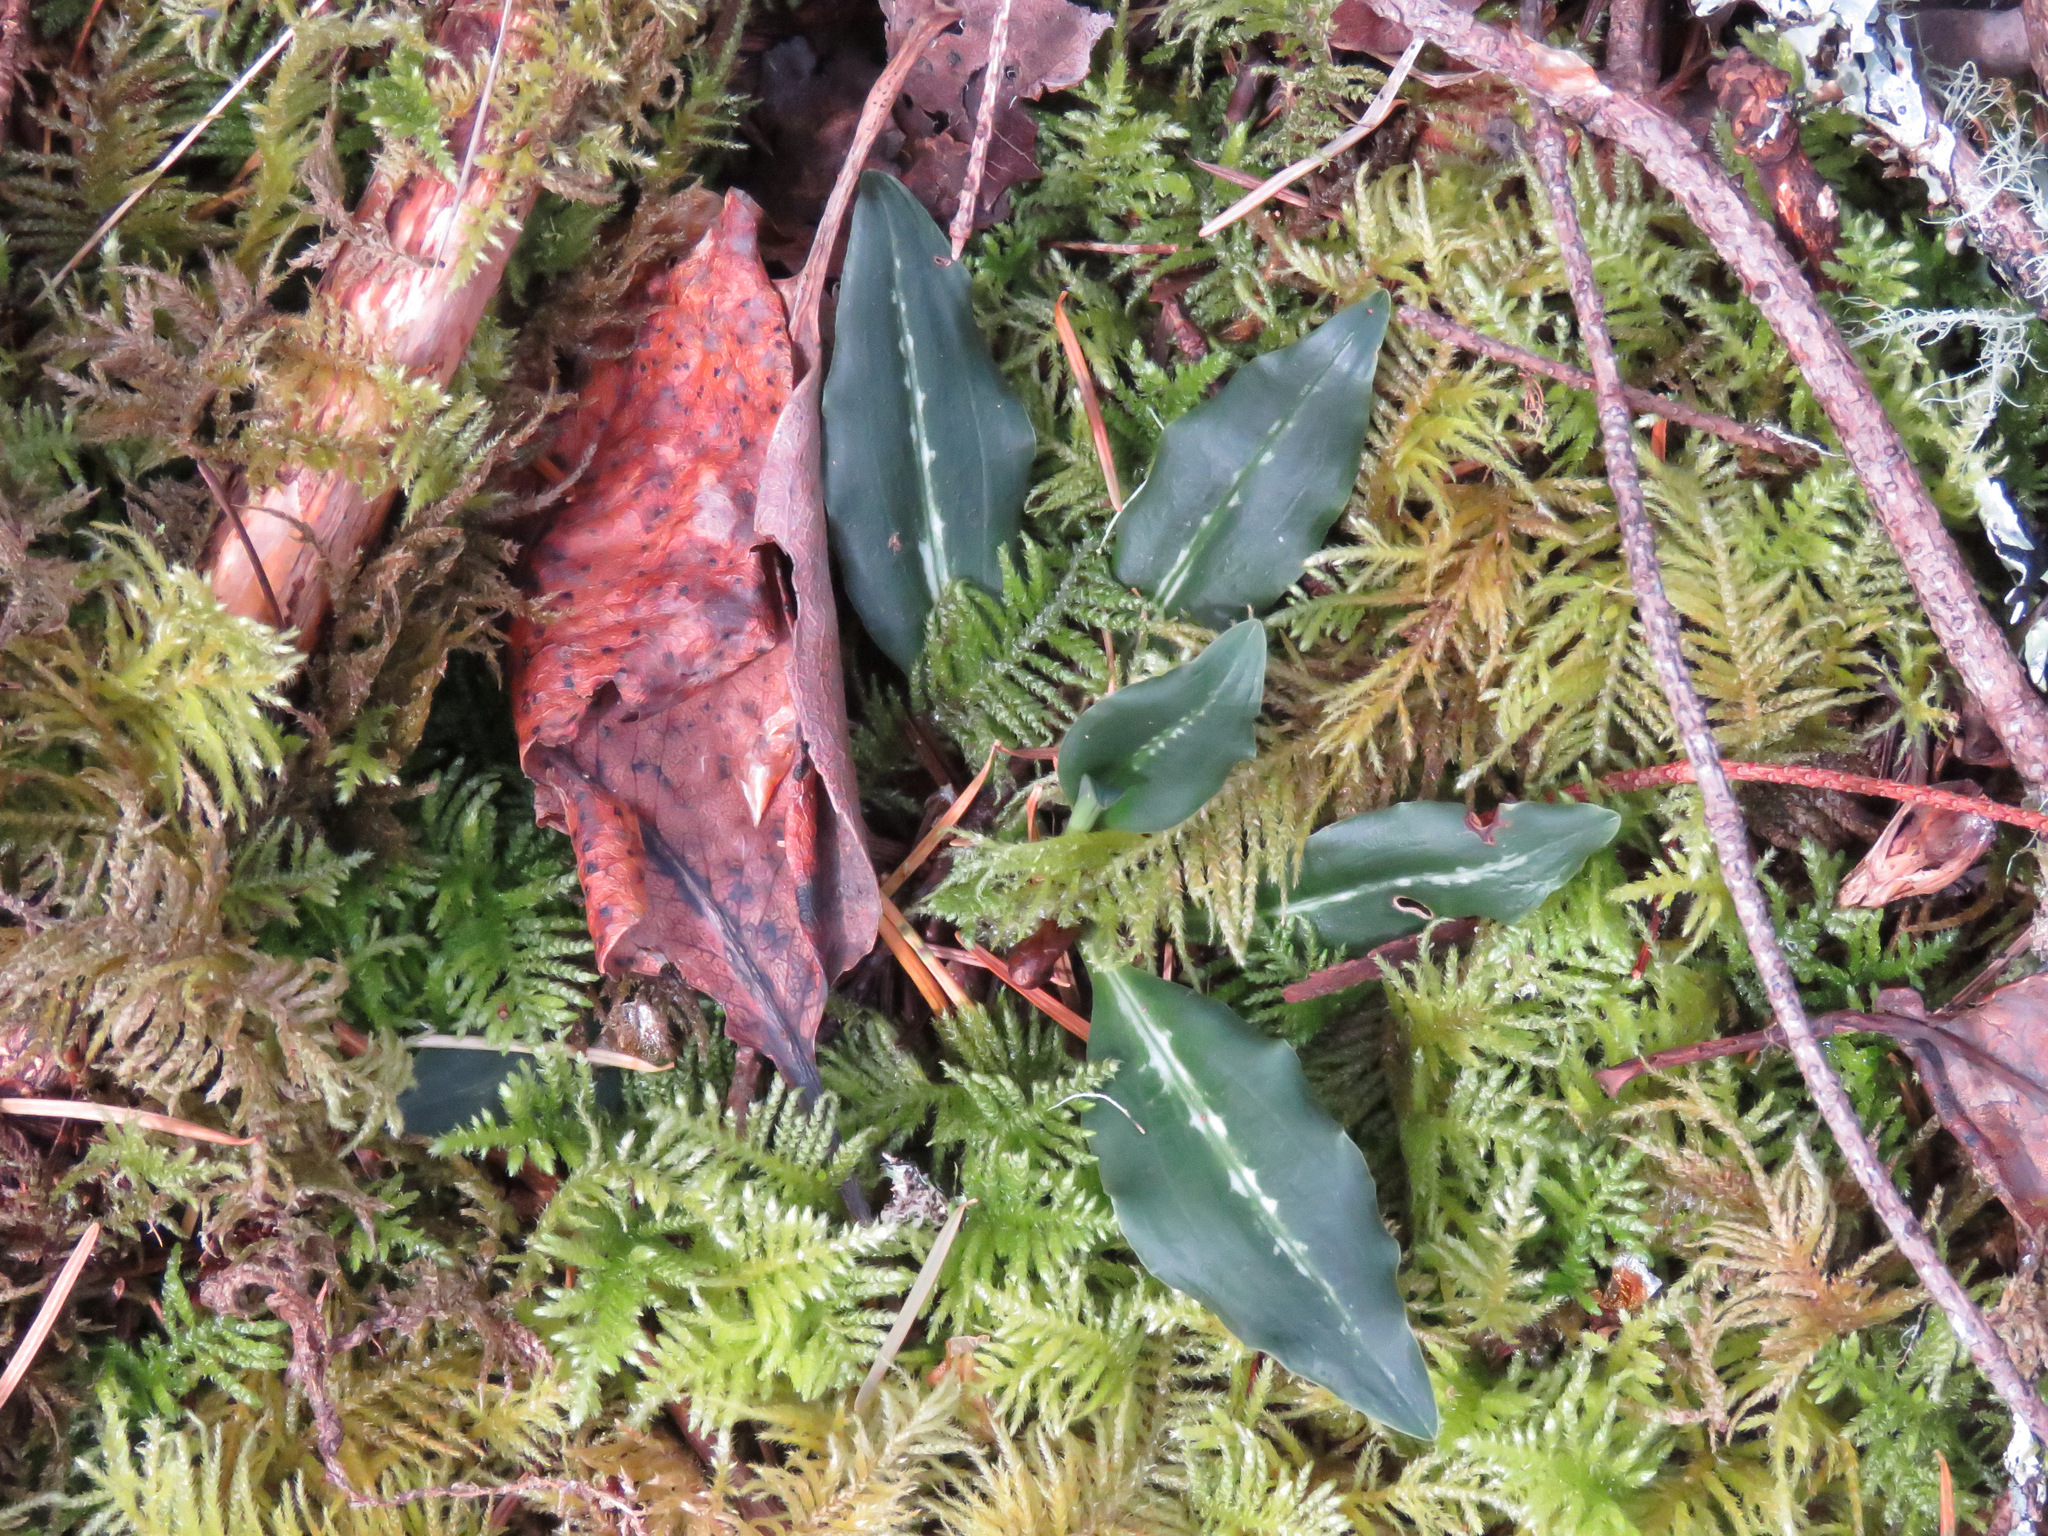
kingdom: Plantae
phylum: Tracheophyta
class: Liliopsida
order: Asparagales
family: Orchidaceae
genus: Goodyera
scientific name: Goodyera oblongifolia
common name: Giant rattlesnake-plantain
